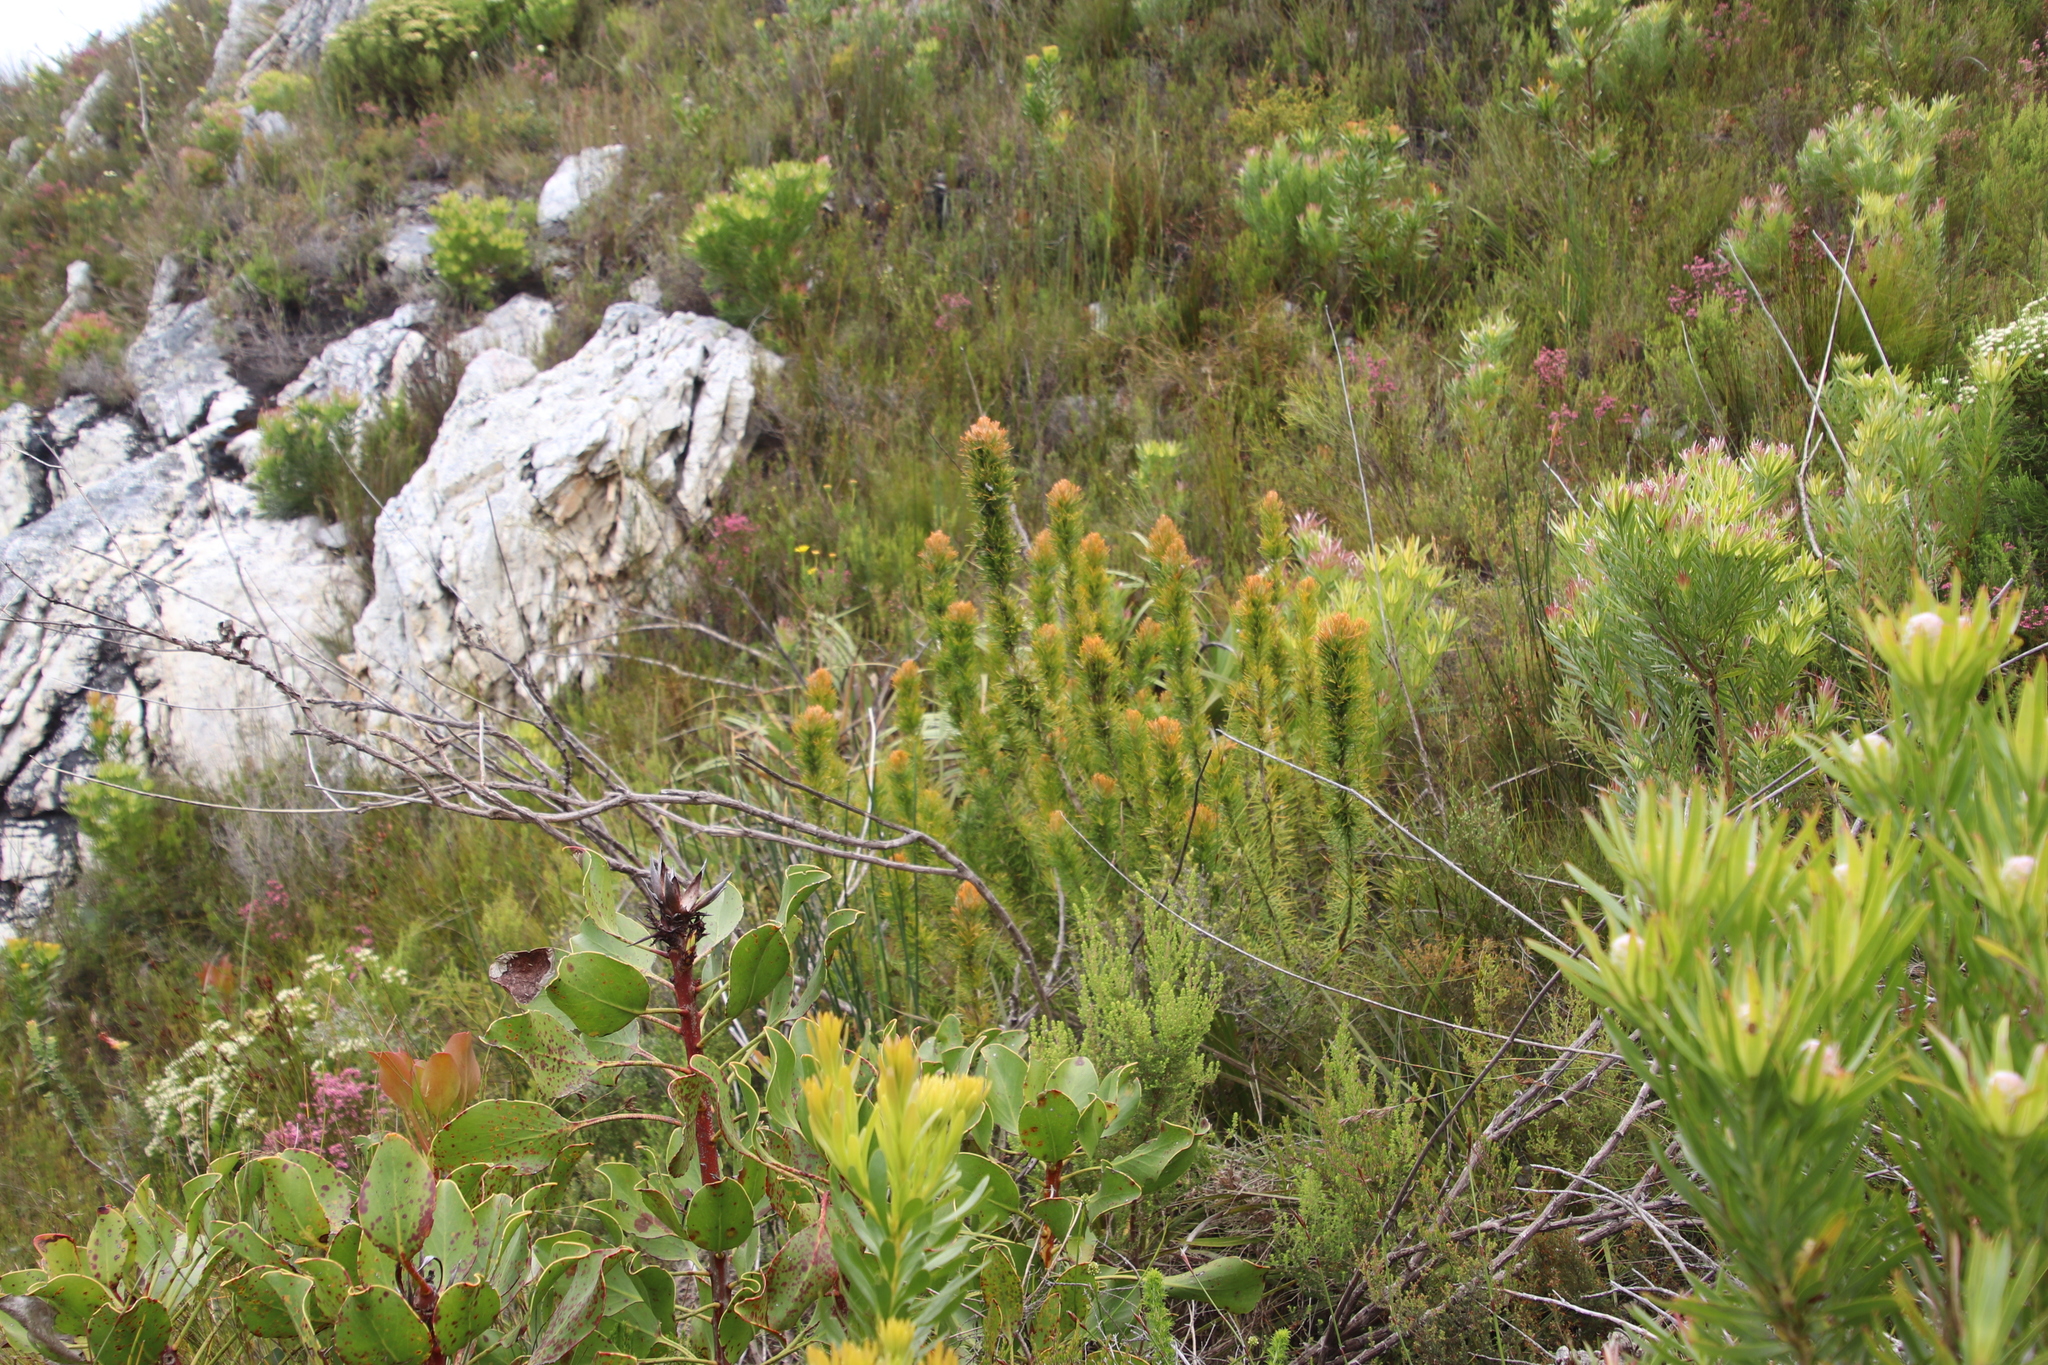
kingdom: Plantae
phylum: Tracheophyta
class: Magnoliopsida
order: Lamiales
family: Stilbaceae
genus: Retzia
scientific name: Retzia capensis
